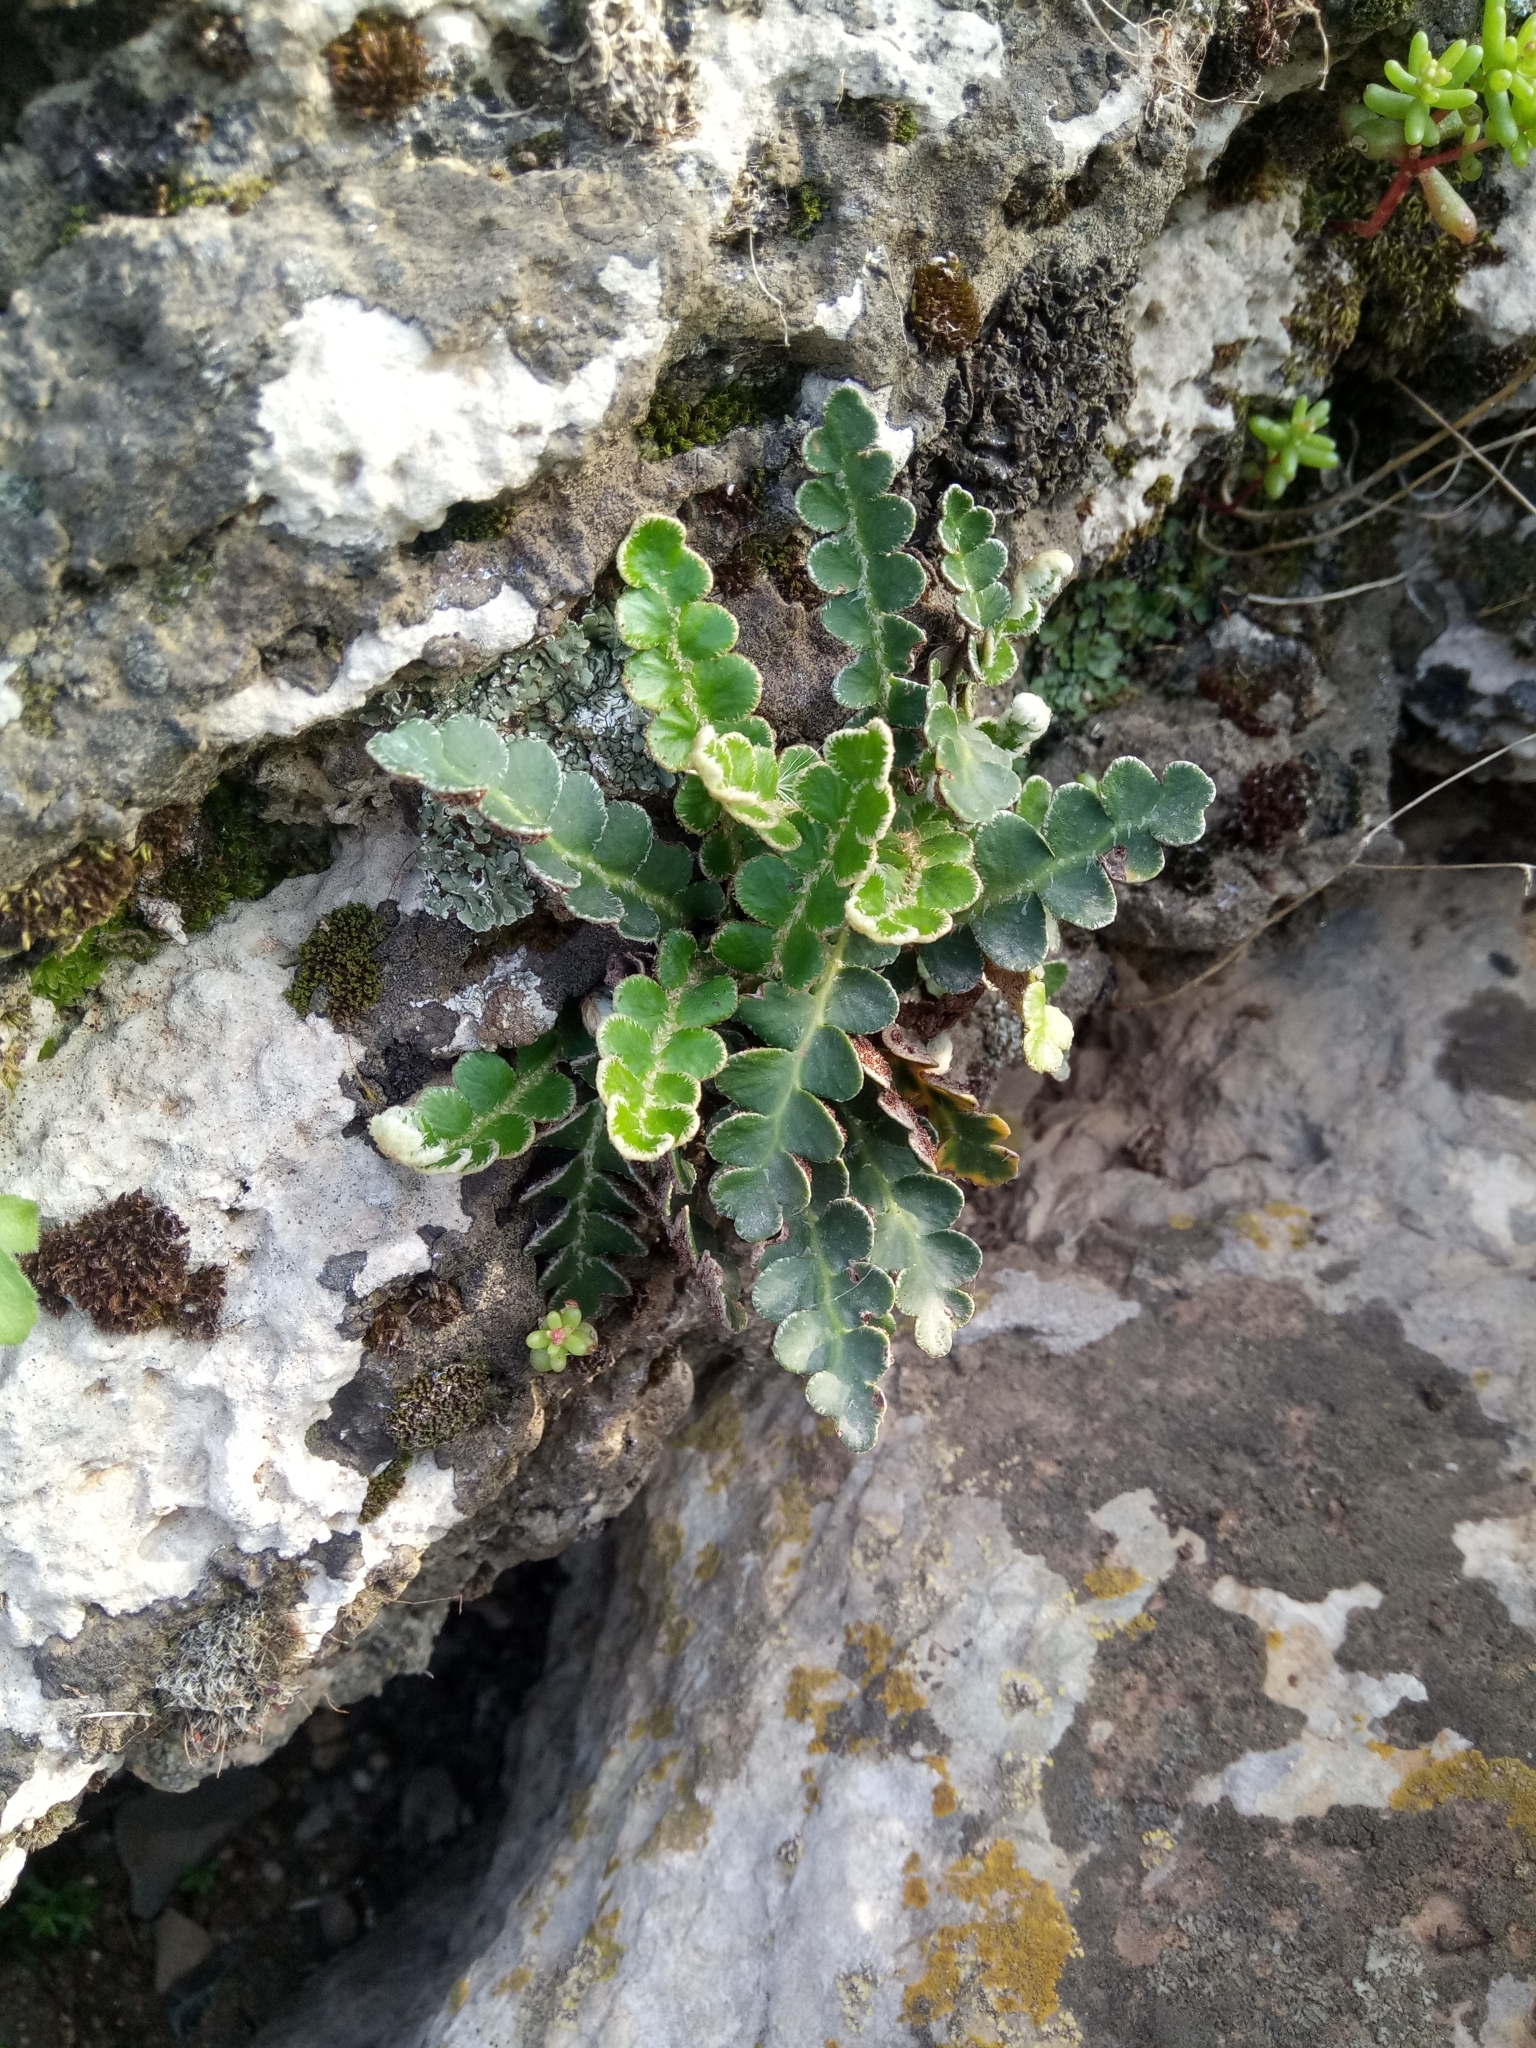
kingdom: Plantae
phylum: Tracheophyta
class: Polypodiopsida
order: Polypodiales
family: Aspleniaceae
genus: Asplenium
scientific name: Asplenium ceterach
